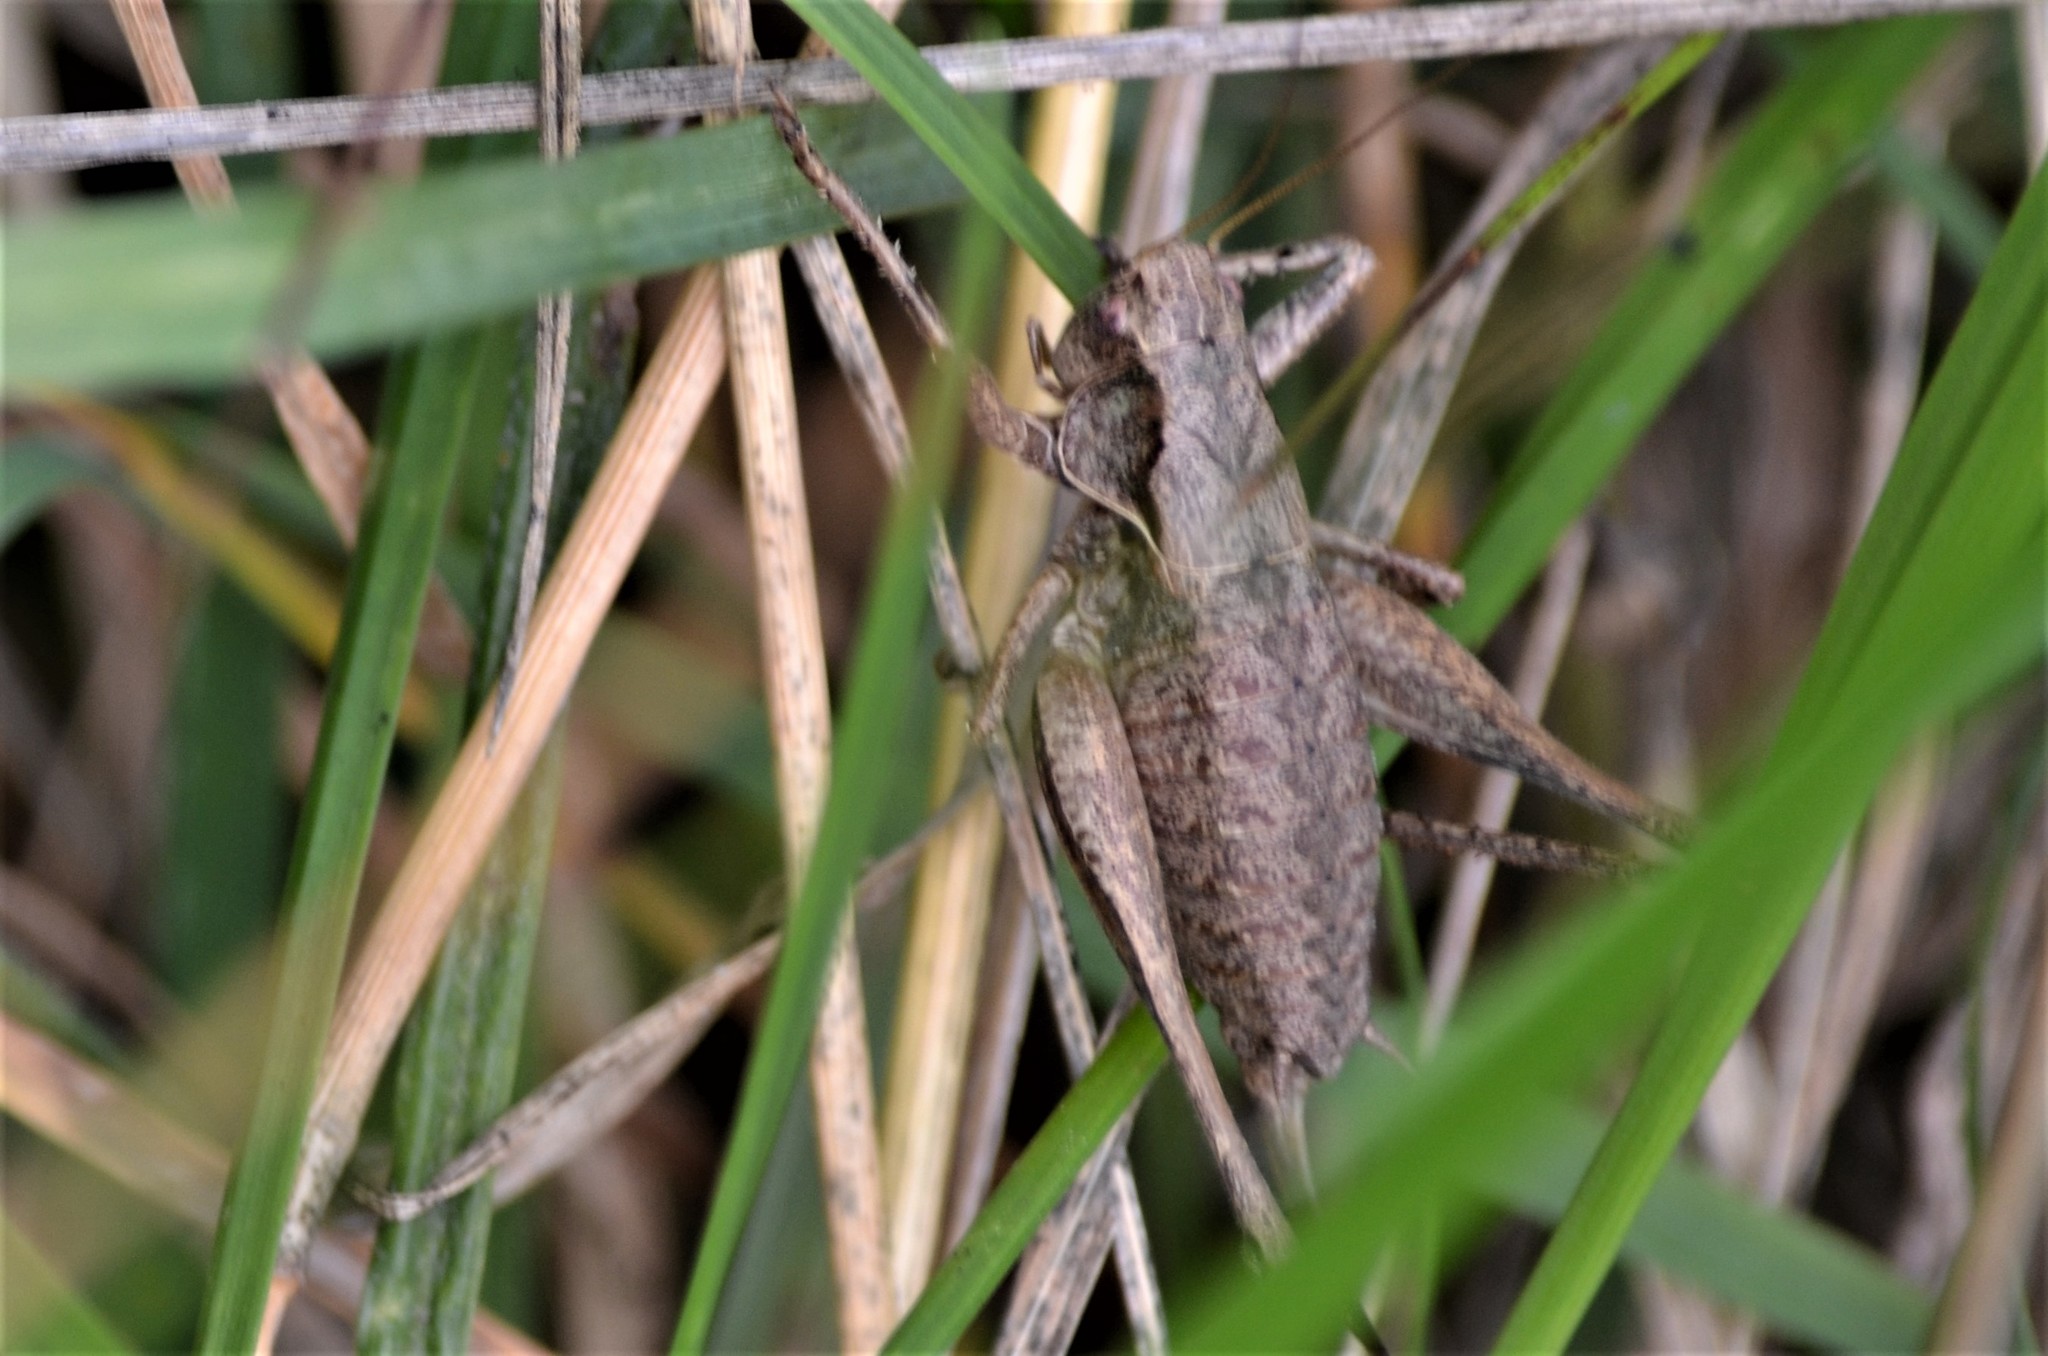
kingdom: Animalia
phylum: Arthropoda
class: Insecta
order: Orthoptera
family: Tettigoniidae
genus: Pholidoptera
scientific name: Pholidoptera griseoaptera
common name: Dark bush-cricket
